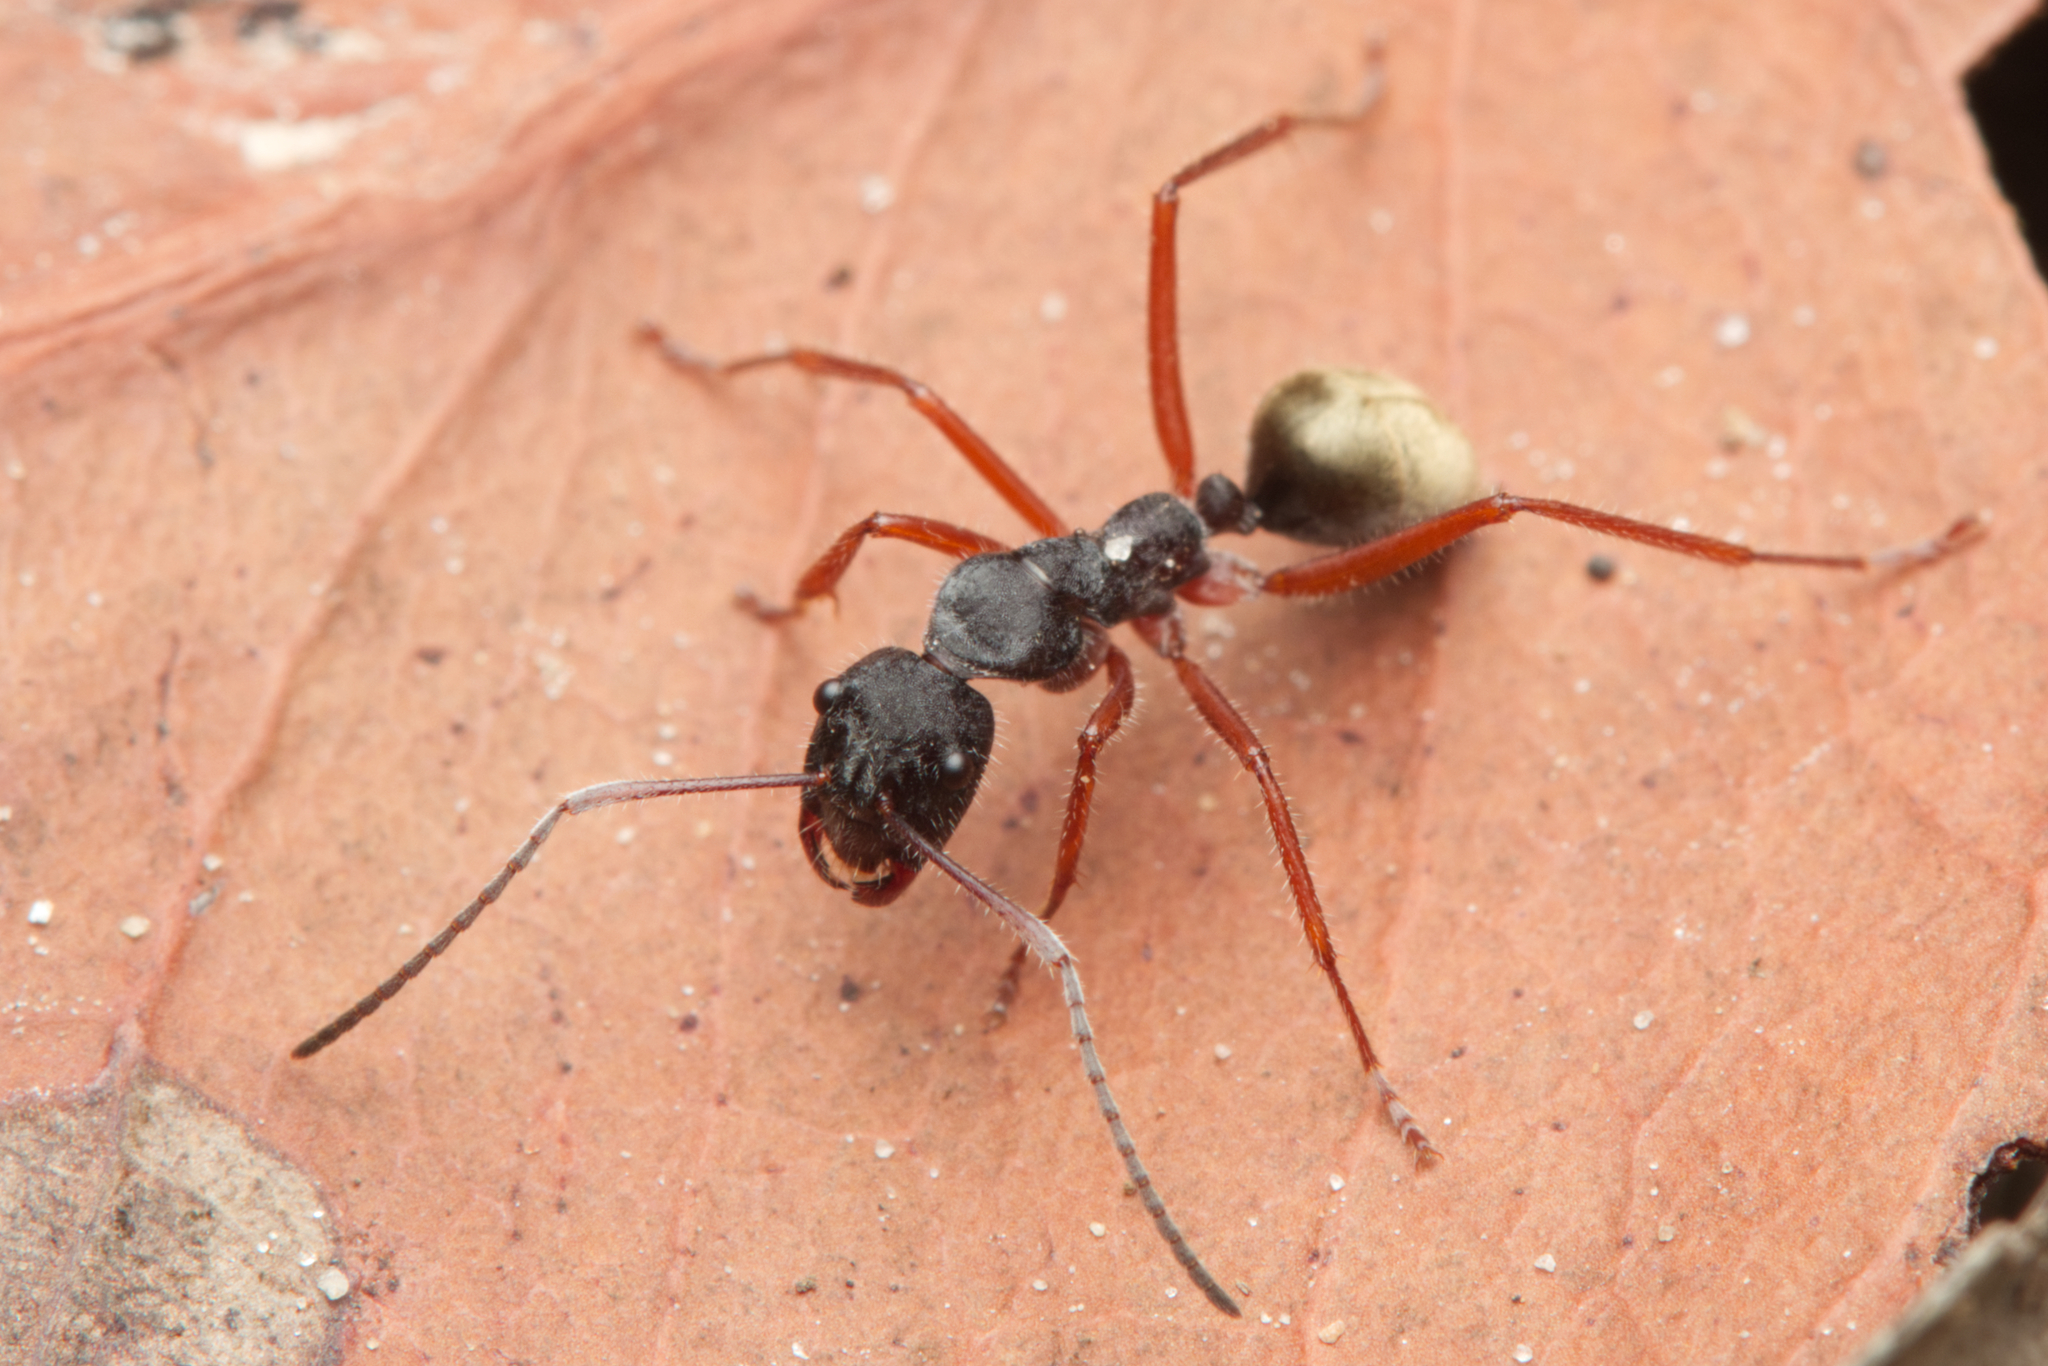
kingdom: Animalia
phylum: Arthropoda
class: Insecta
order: Hymenoptera
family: Formicidae
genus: Camponotus
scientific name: Camponotus suffusus
